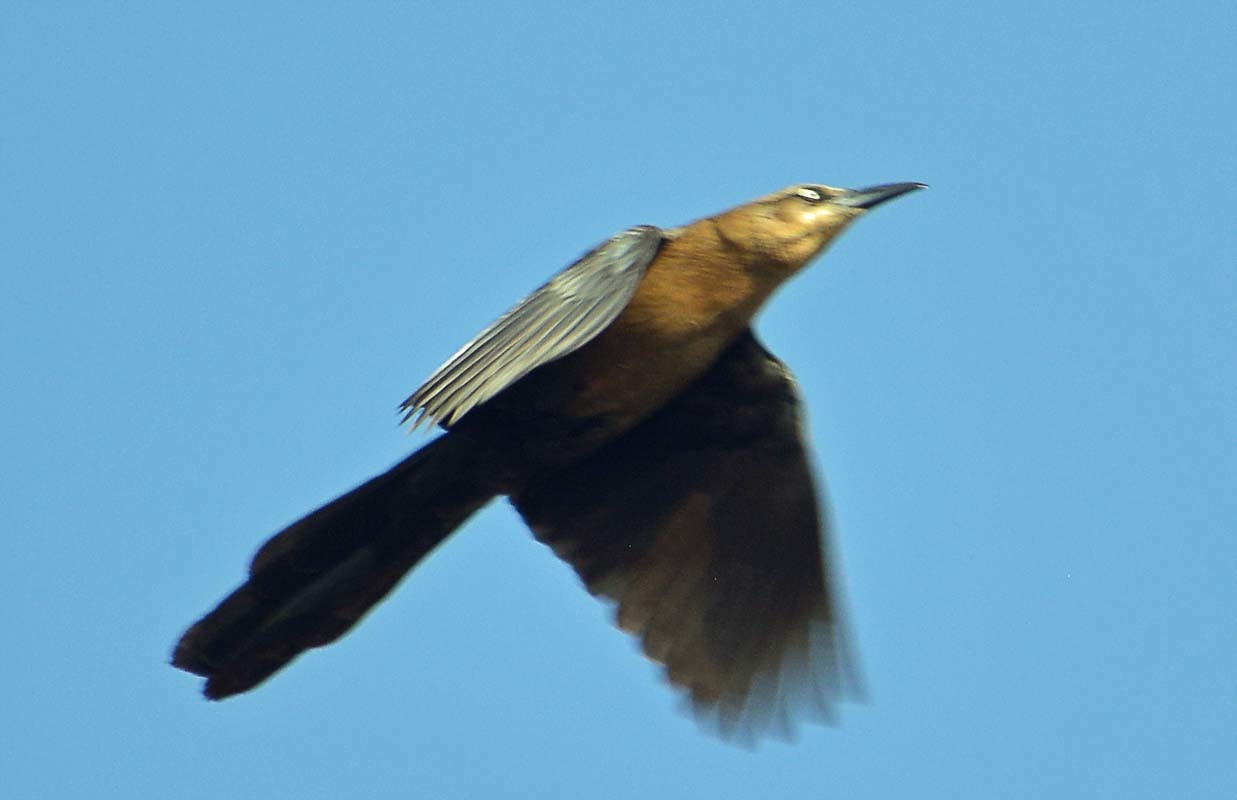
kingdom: Animalia
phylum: Chordata
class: Aves
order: Passeriformes
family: Icteridae
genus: Quiscalus
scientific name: Quiscalus mexicanus
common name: Great-tailed grackle
